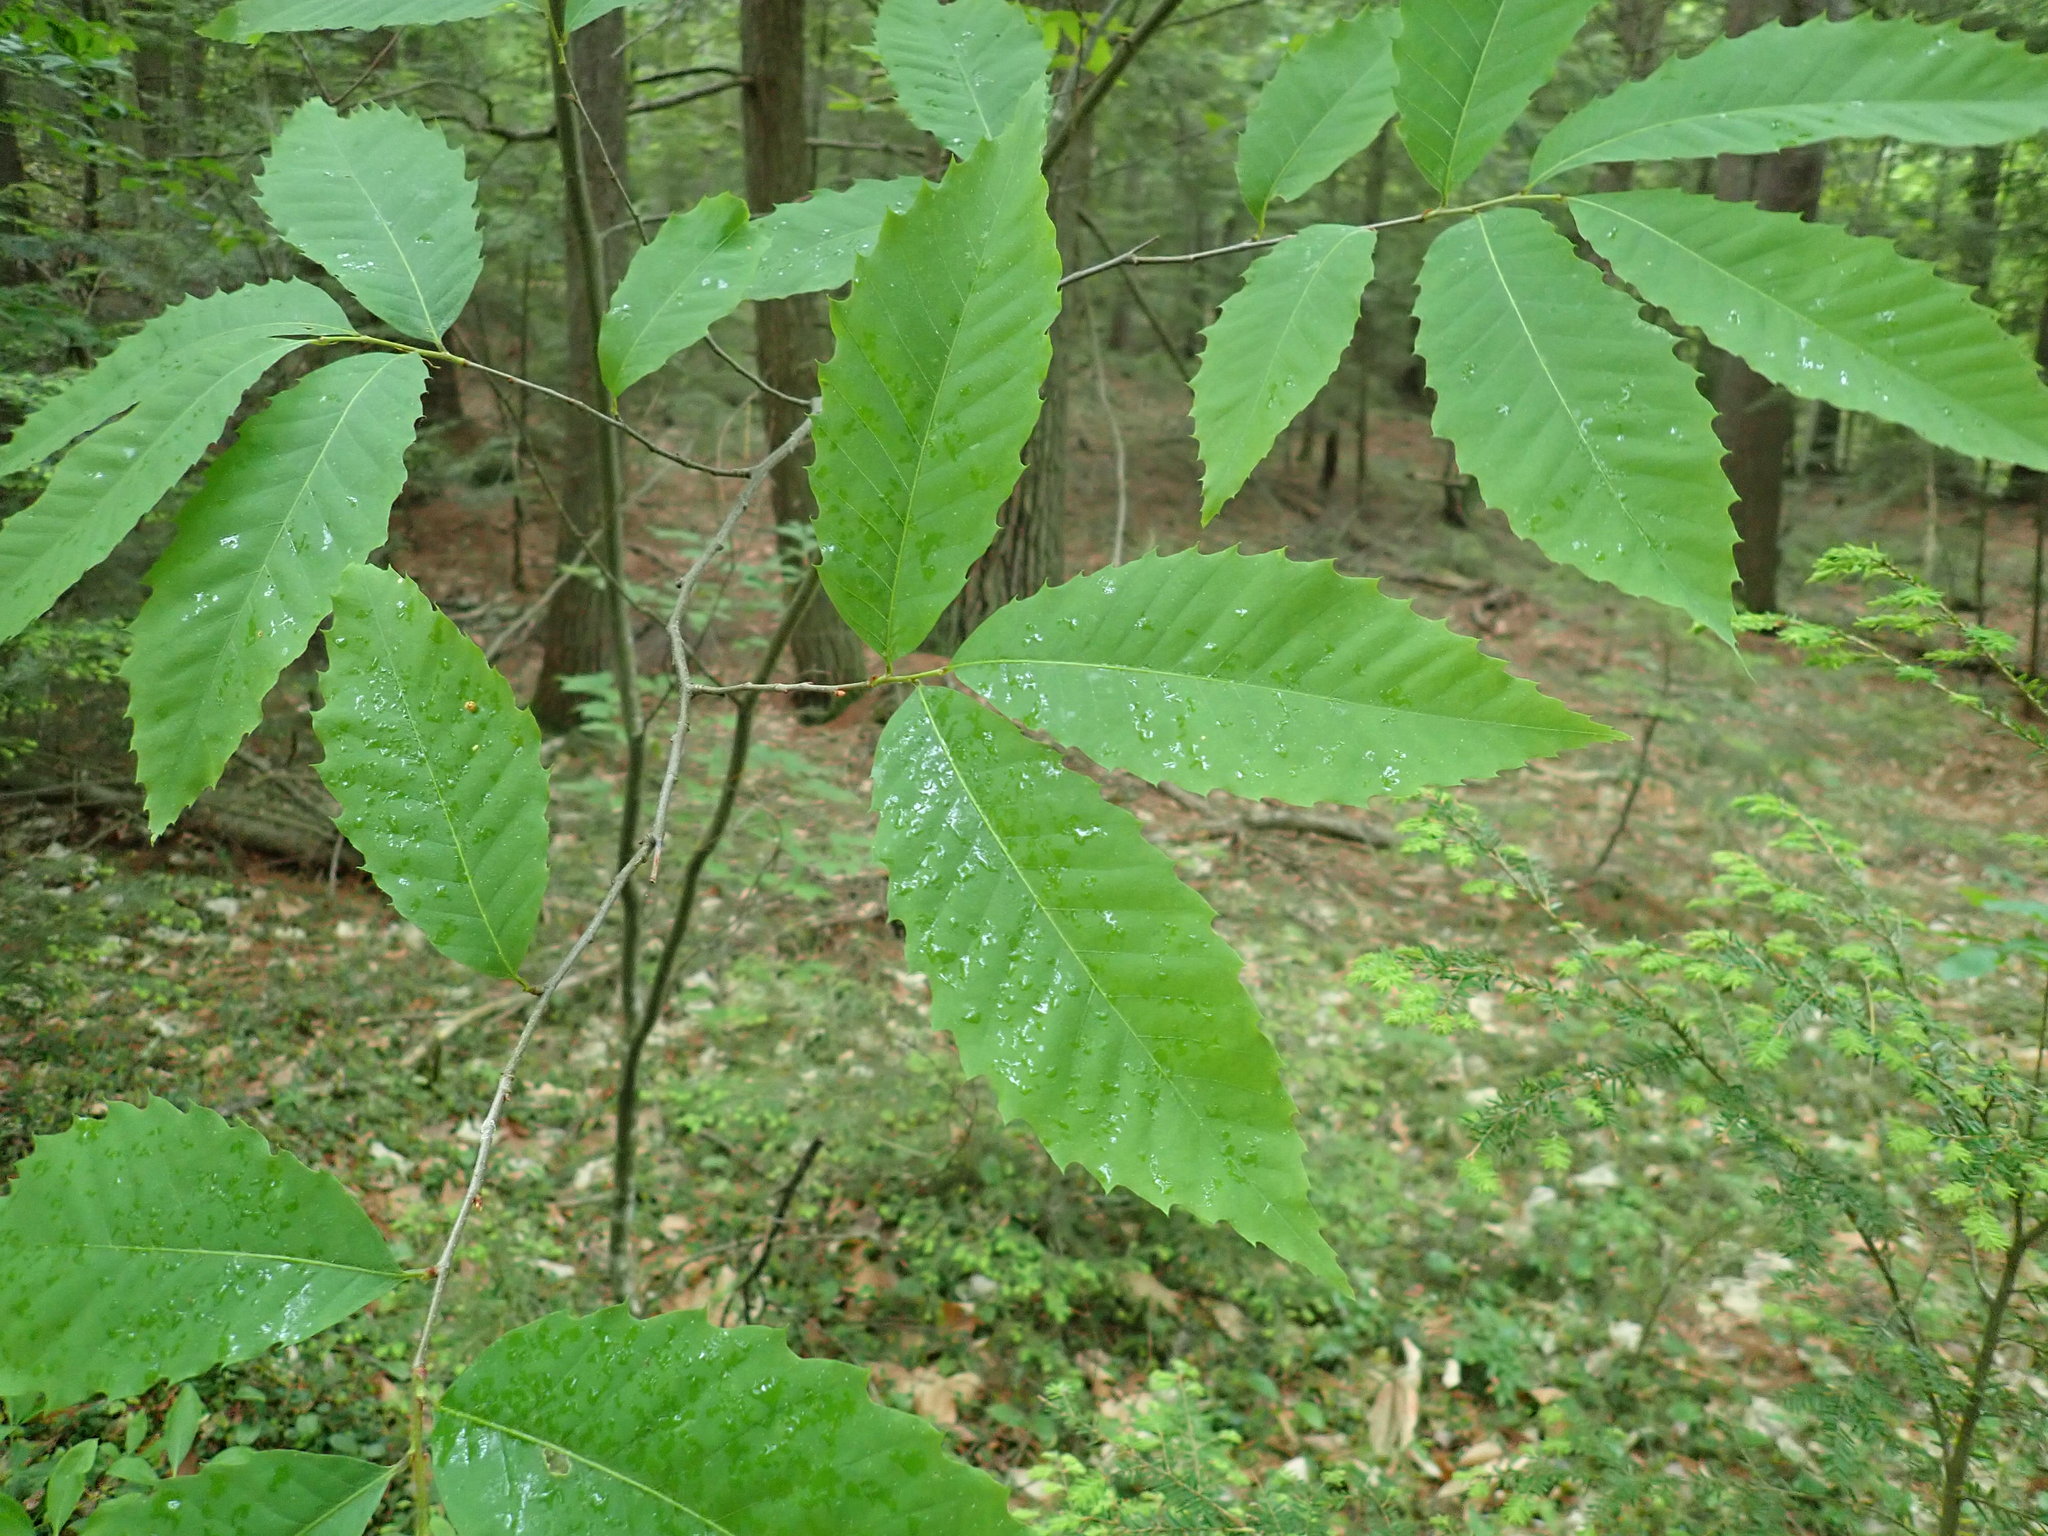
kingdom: Plantae
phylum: Tracheophyta
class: Magnoliopsida
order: Fagales
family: Fagaceae
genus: Castanea
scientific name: Castanea dentata
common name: American chestnut
